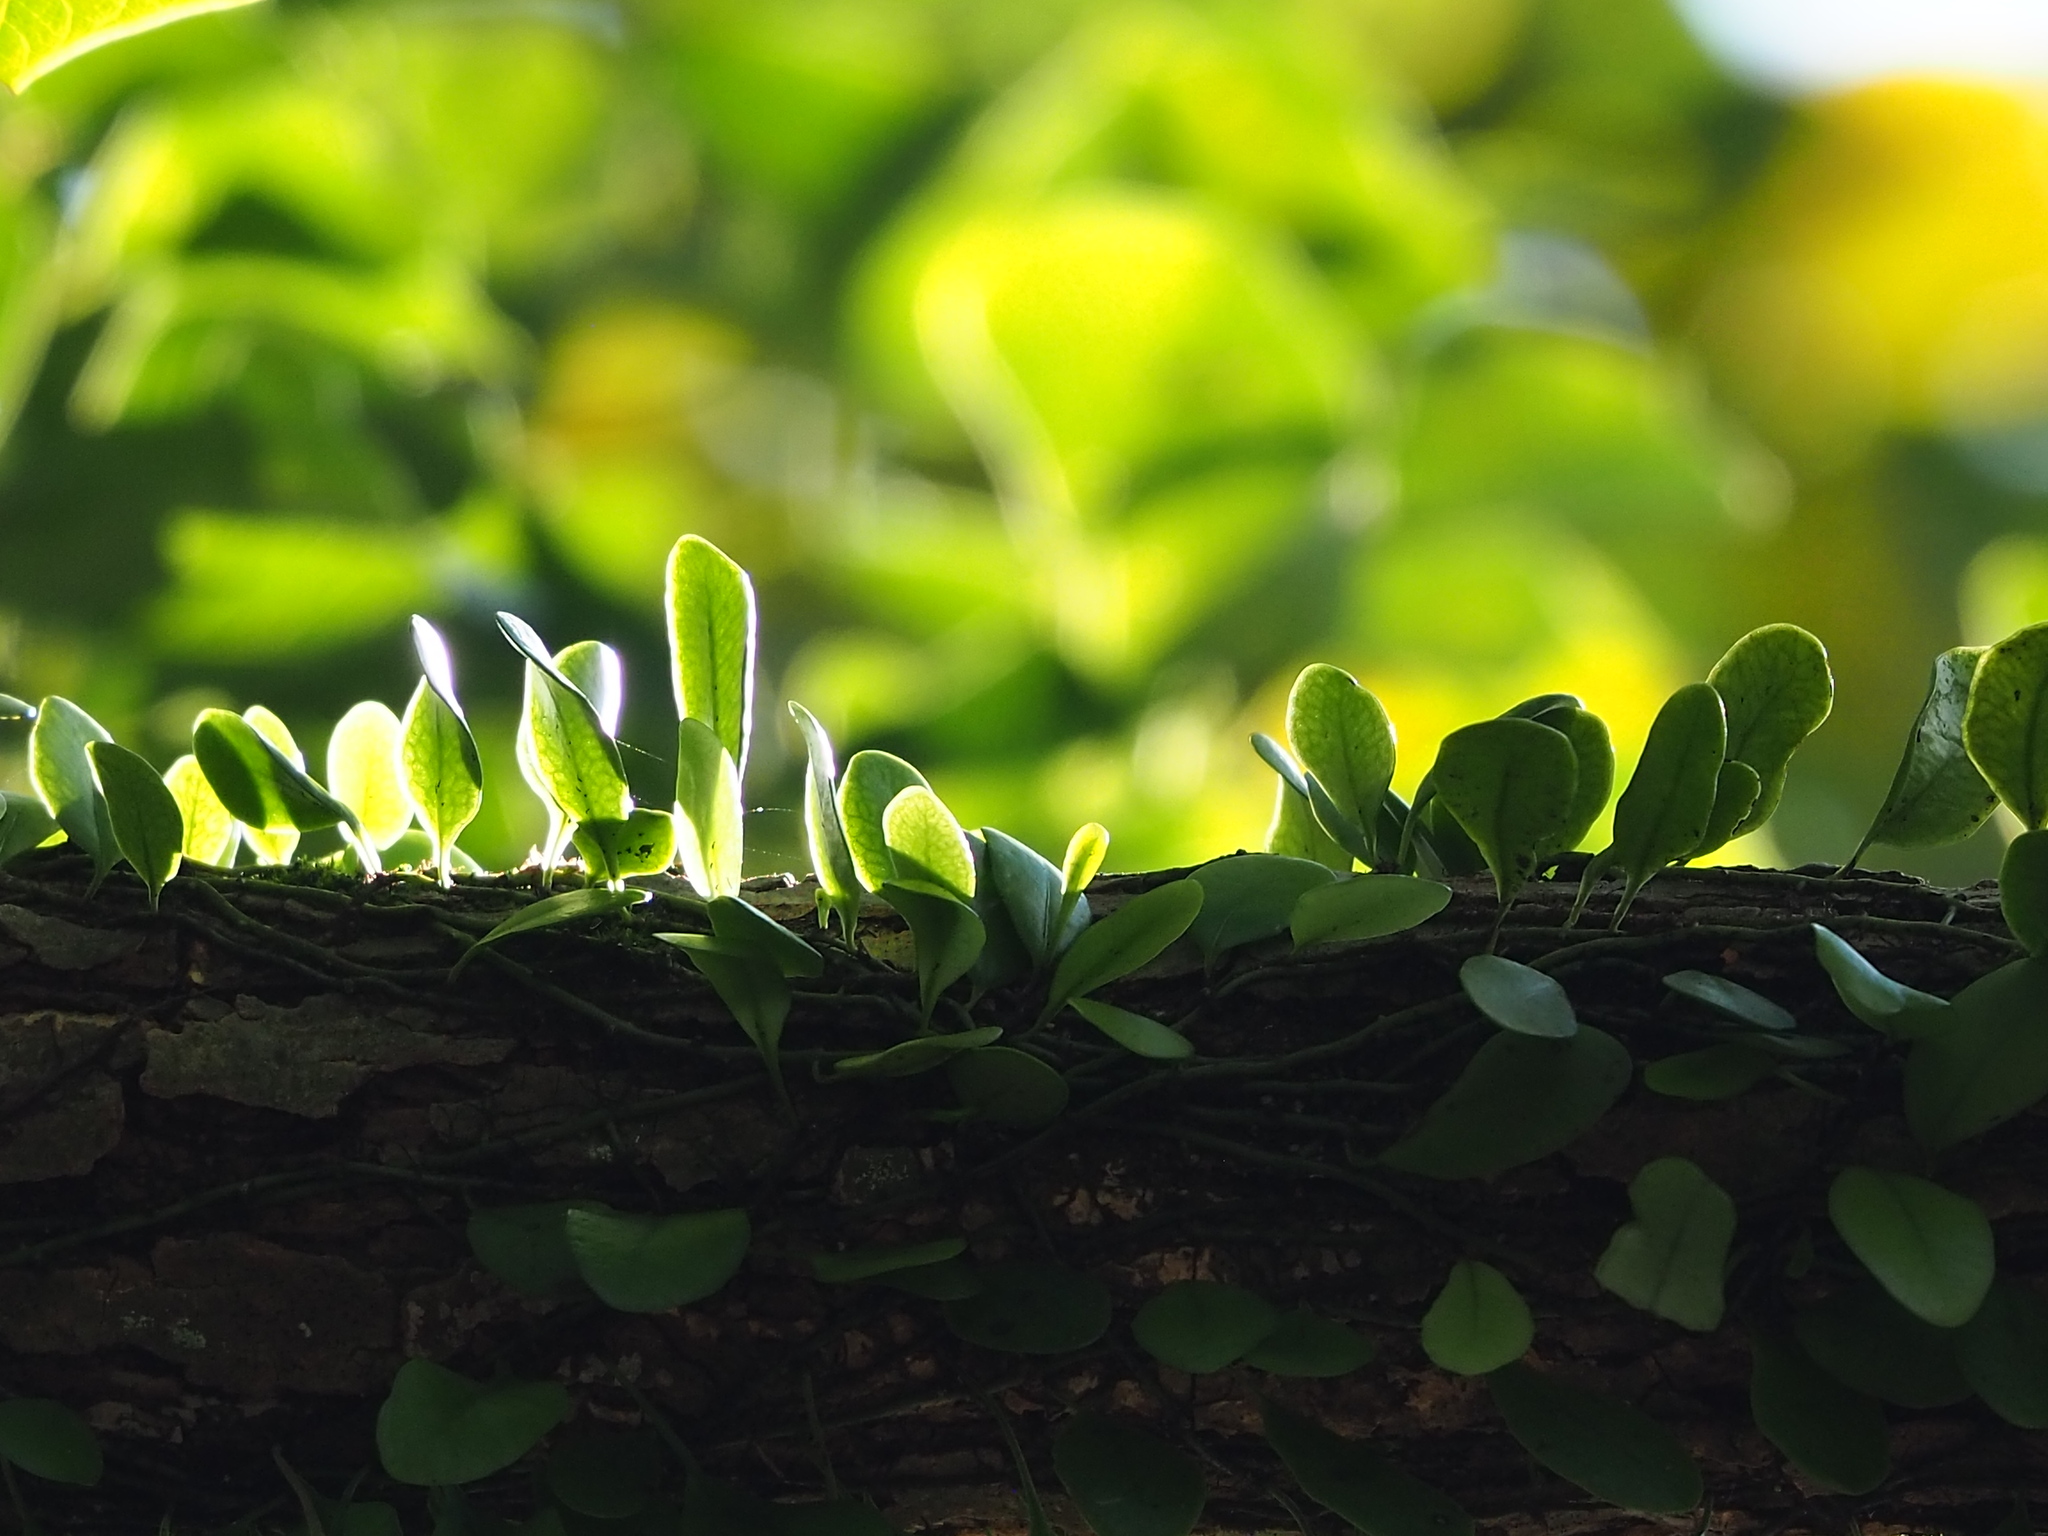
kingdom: Plantae
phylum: Tracheophyta
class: Polypodiopsida
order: Polypodiales
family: Polypodiaceae
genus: Lepisorus
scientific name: Lepisorus microphyllus
